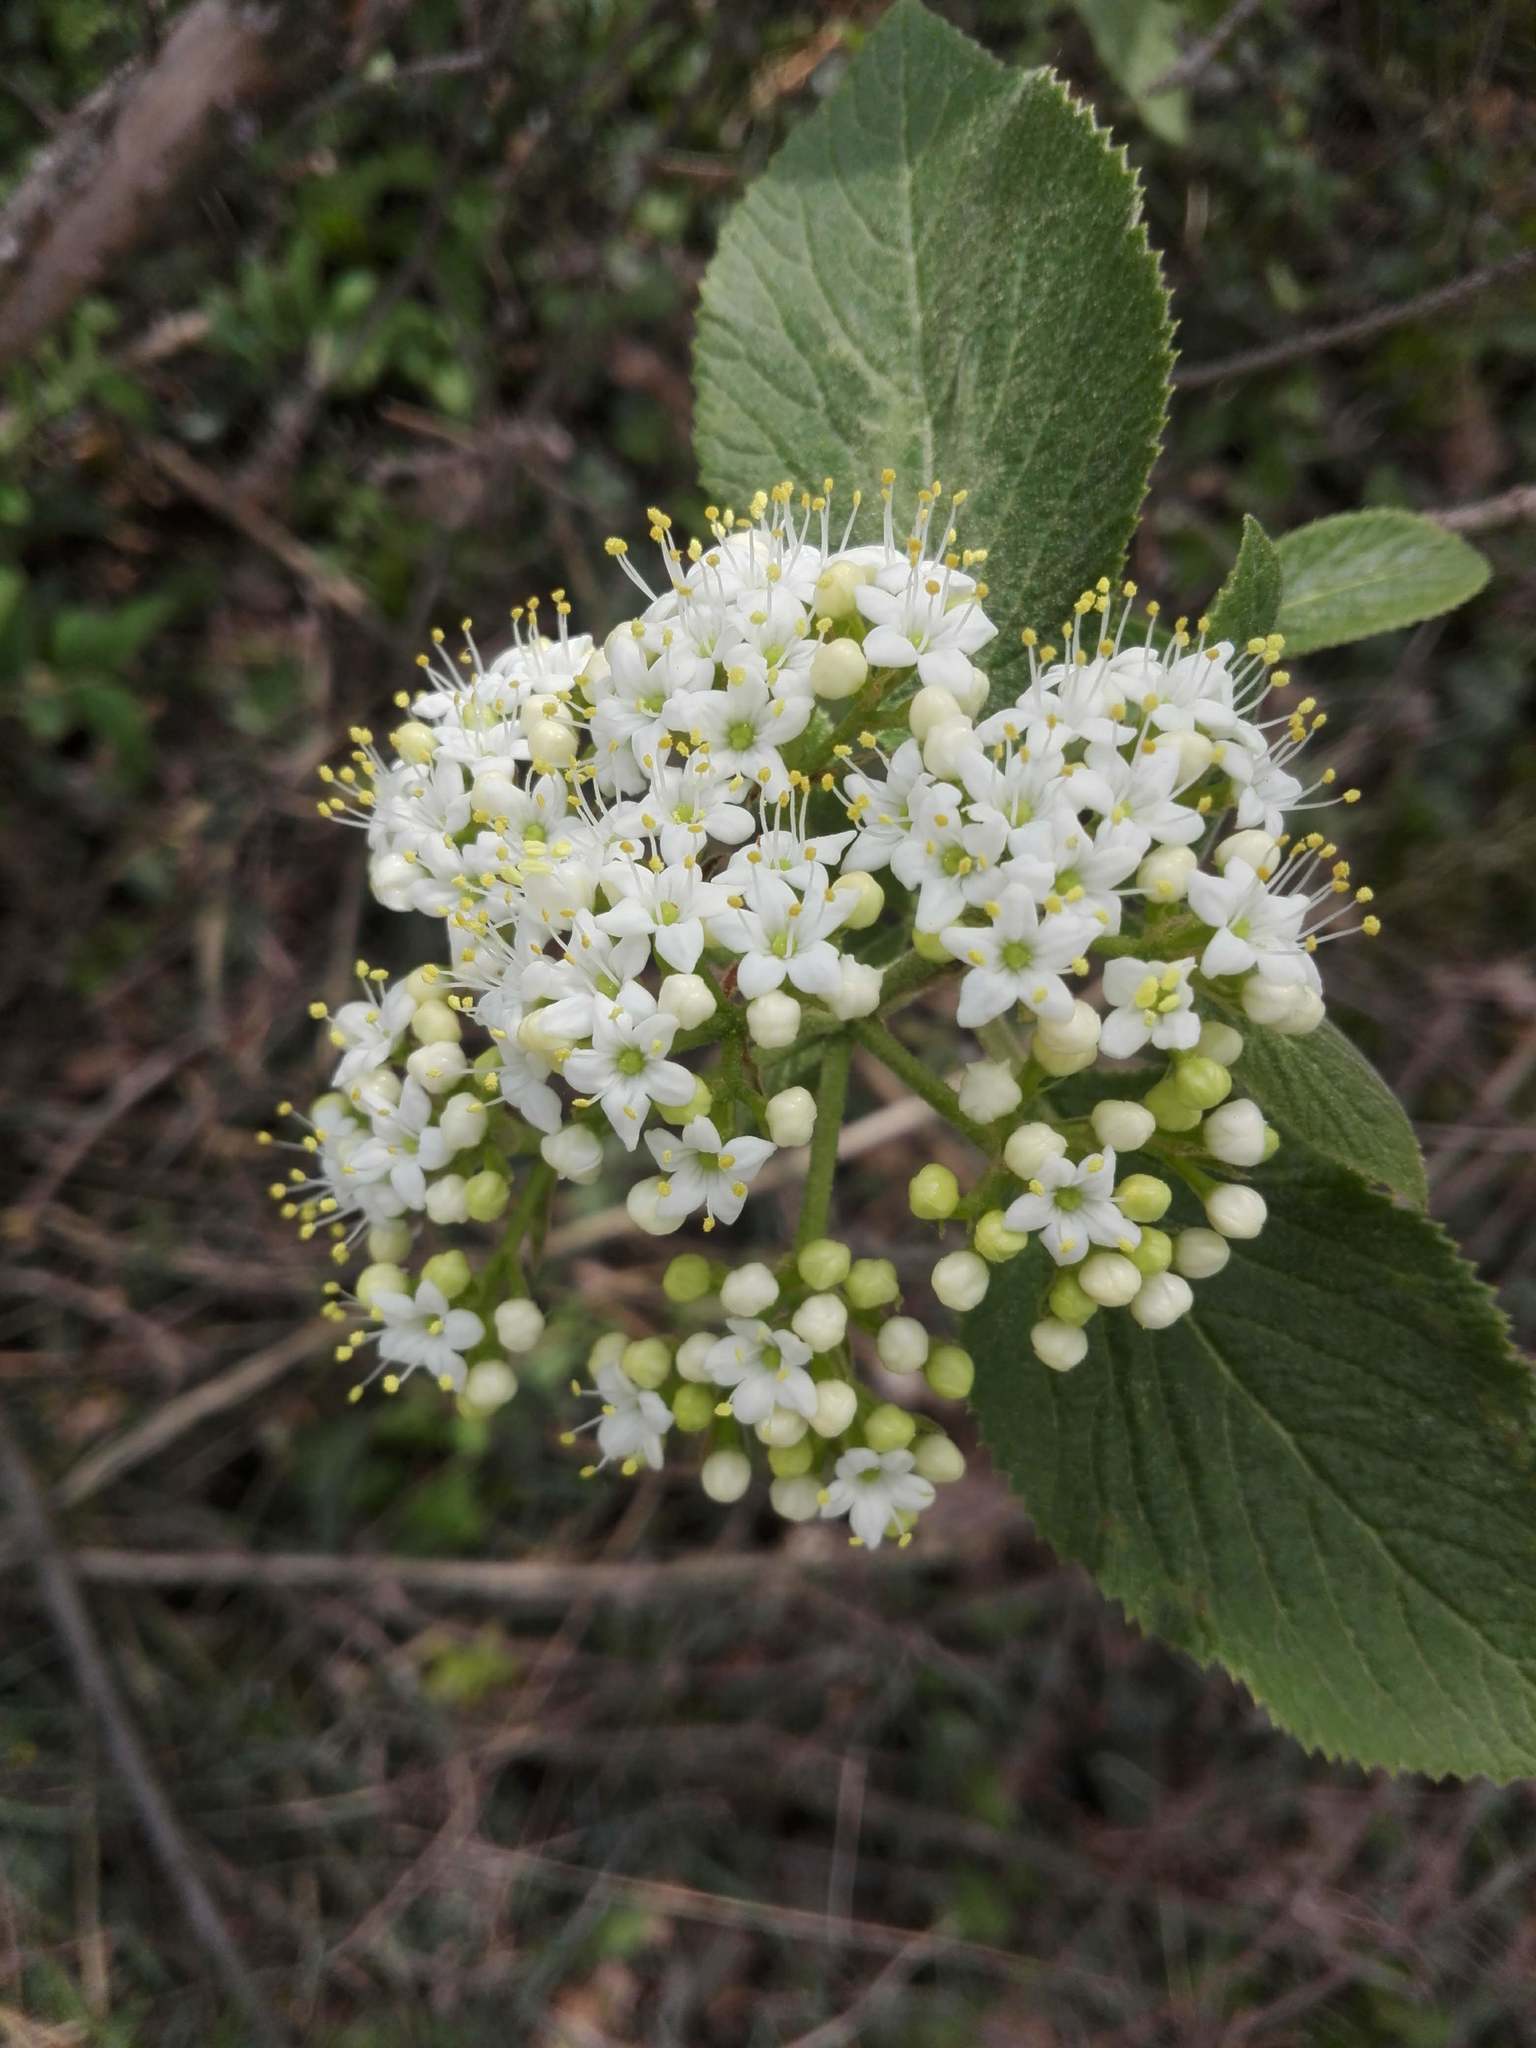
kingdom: Plantae
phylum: Tracheophyta
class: Magnoliopsida
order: Dipsacales
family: Viburnaceae
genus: Viburnum
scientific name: Viburnum lantana
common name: Wayfaring tree
